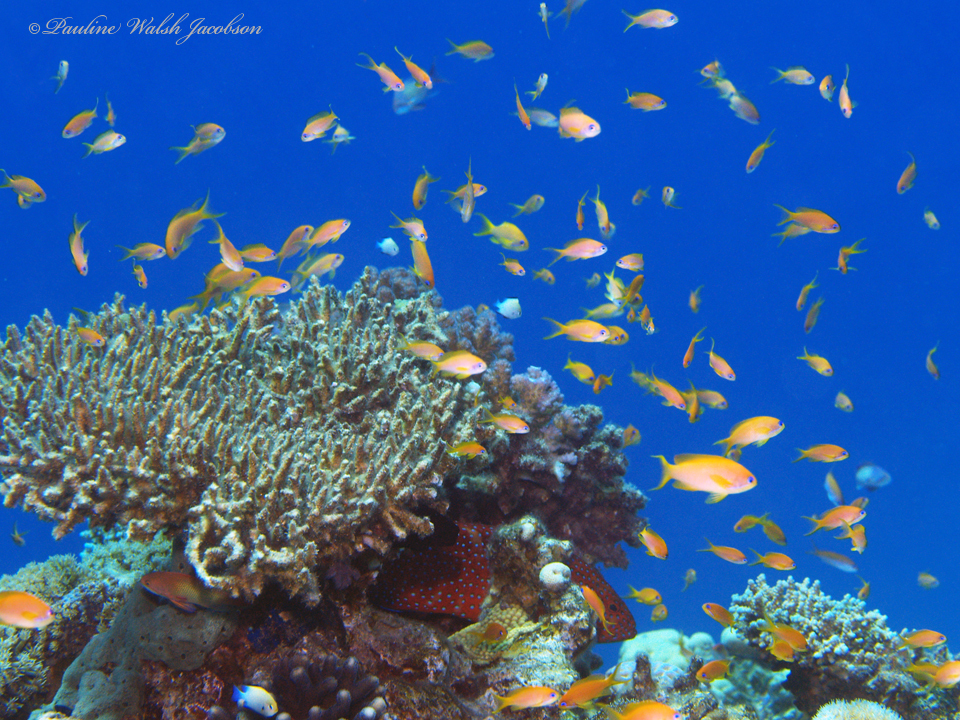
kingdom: Animalia
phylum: Chordata
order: Perciformes
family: Serranidae
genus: Pseudanthias
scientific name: Pseudanthias squamipinnis
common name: Scalefin anthias
